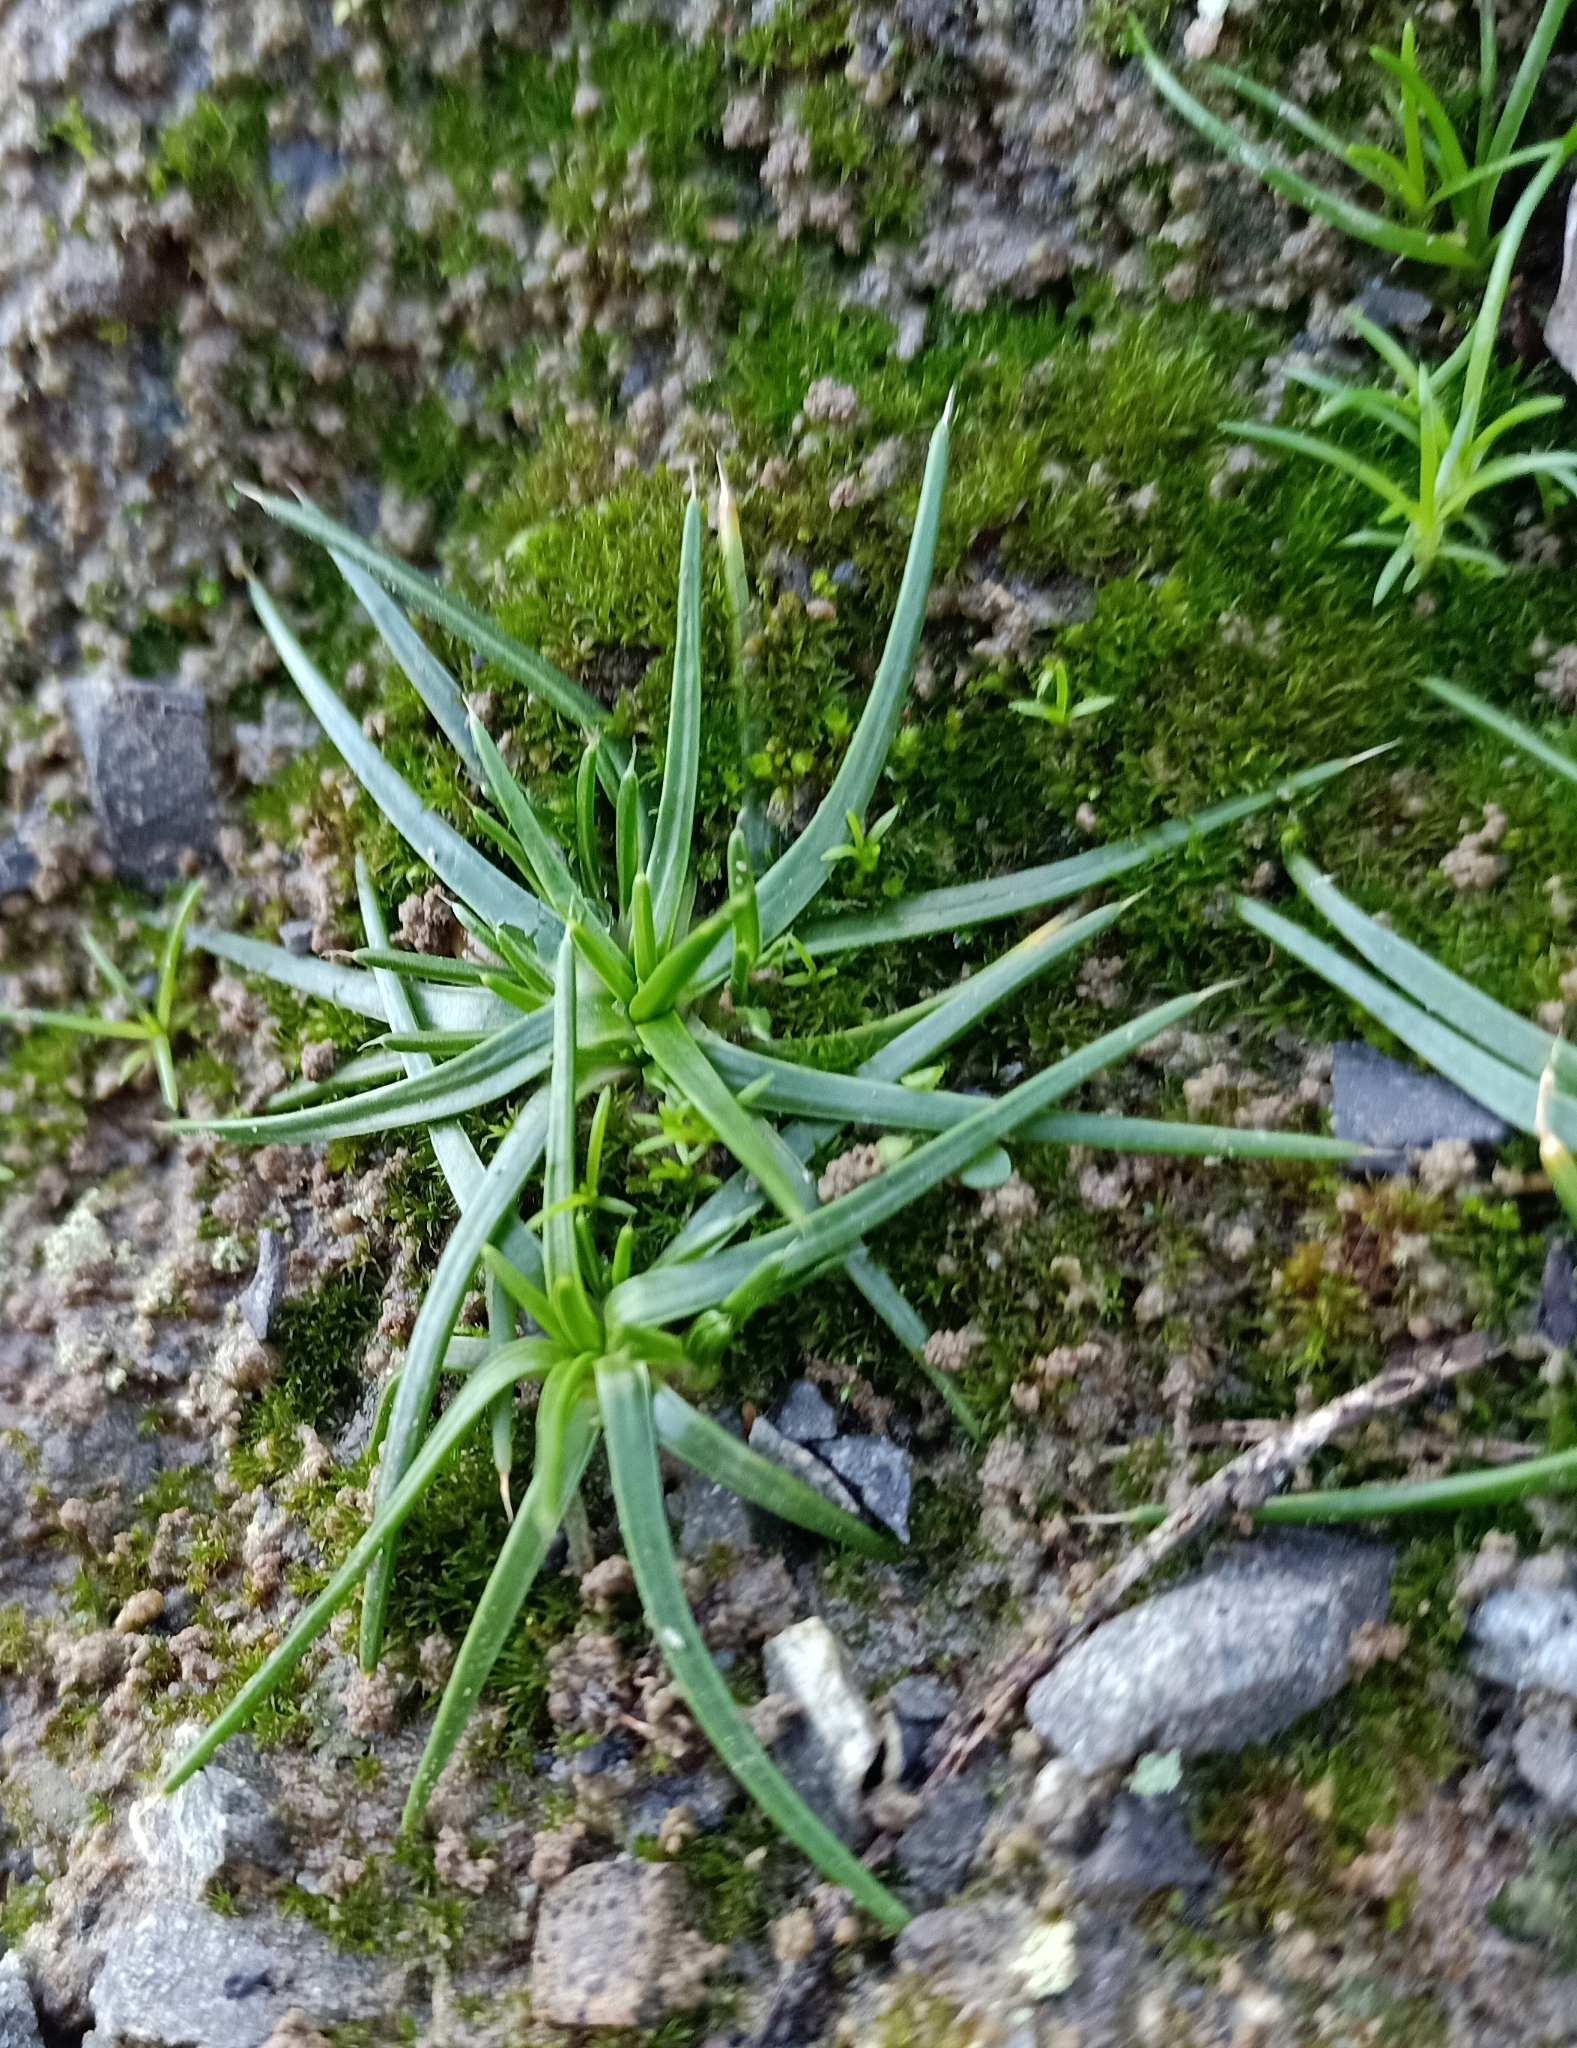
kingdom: Plantae
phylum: Tracheophyta
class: Magnoliopsida
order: Caryophyllales
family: Caryophyllaceae
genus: Colobanthus
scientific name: Colobanthus muelleri
